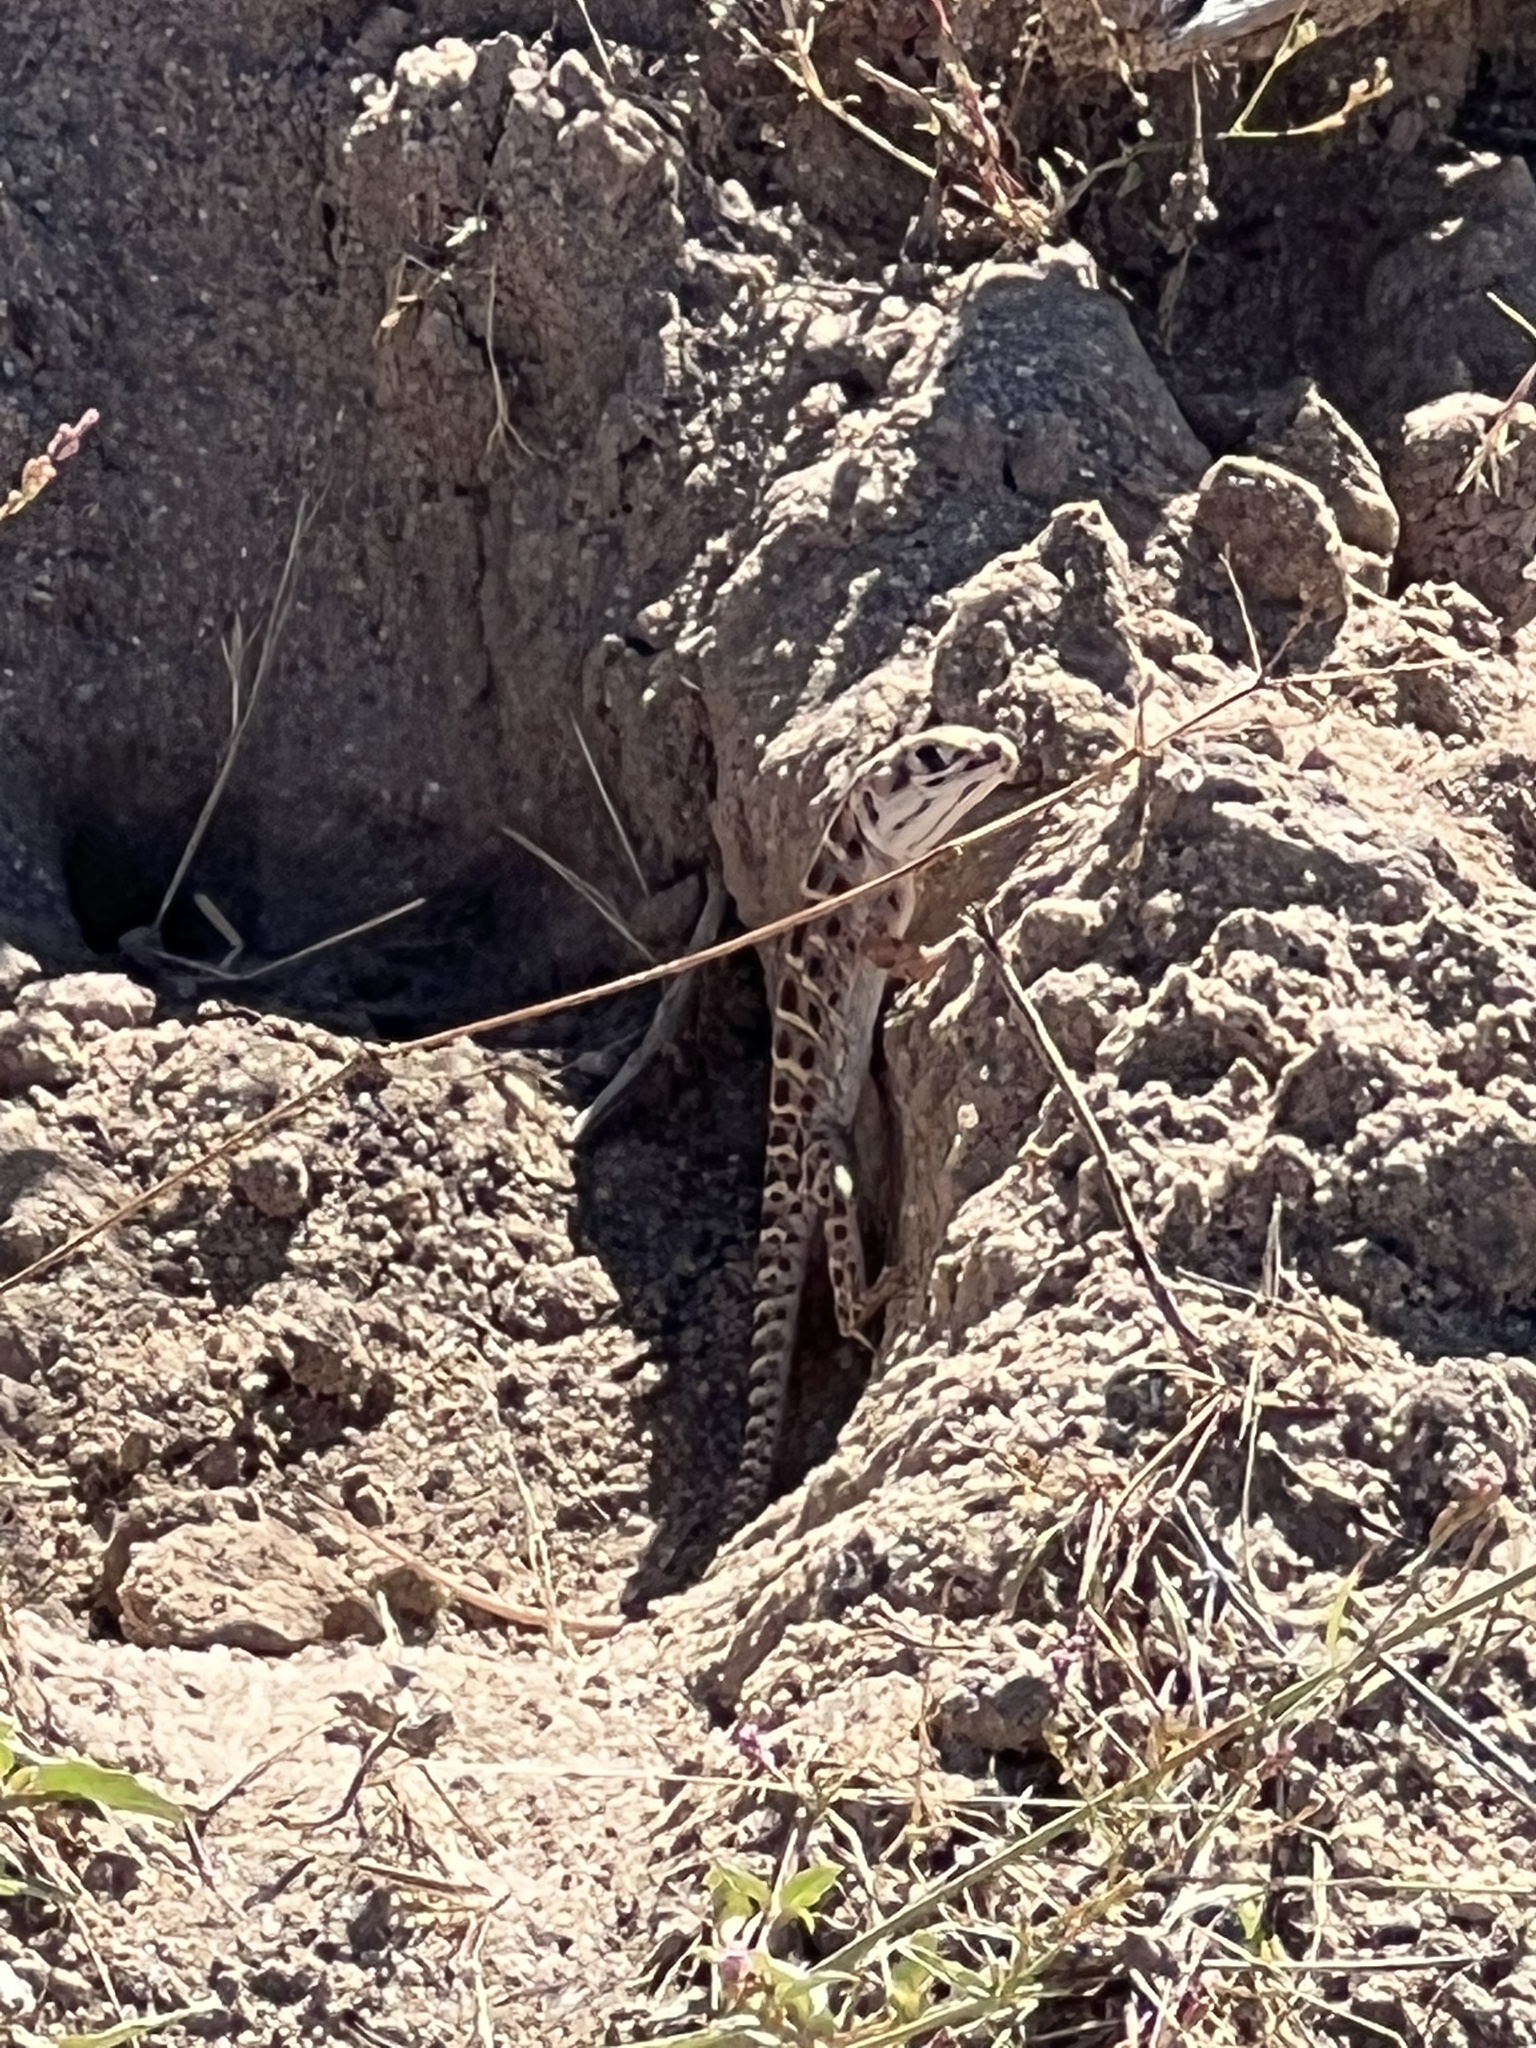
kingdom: Animalia
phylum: Chordata
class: Squamata
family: Crotaphytidae
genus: Gambelia
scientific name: Gambelia wislizenii
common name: Longnose leopard lizard
